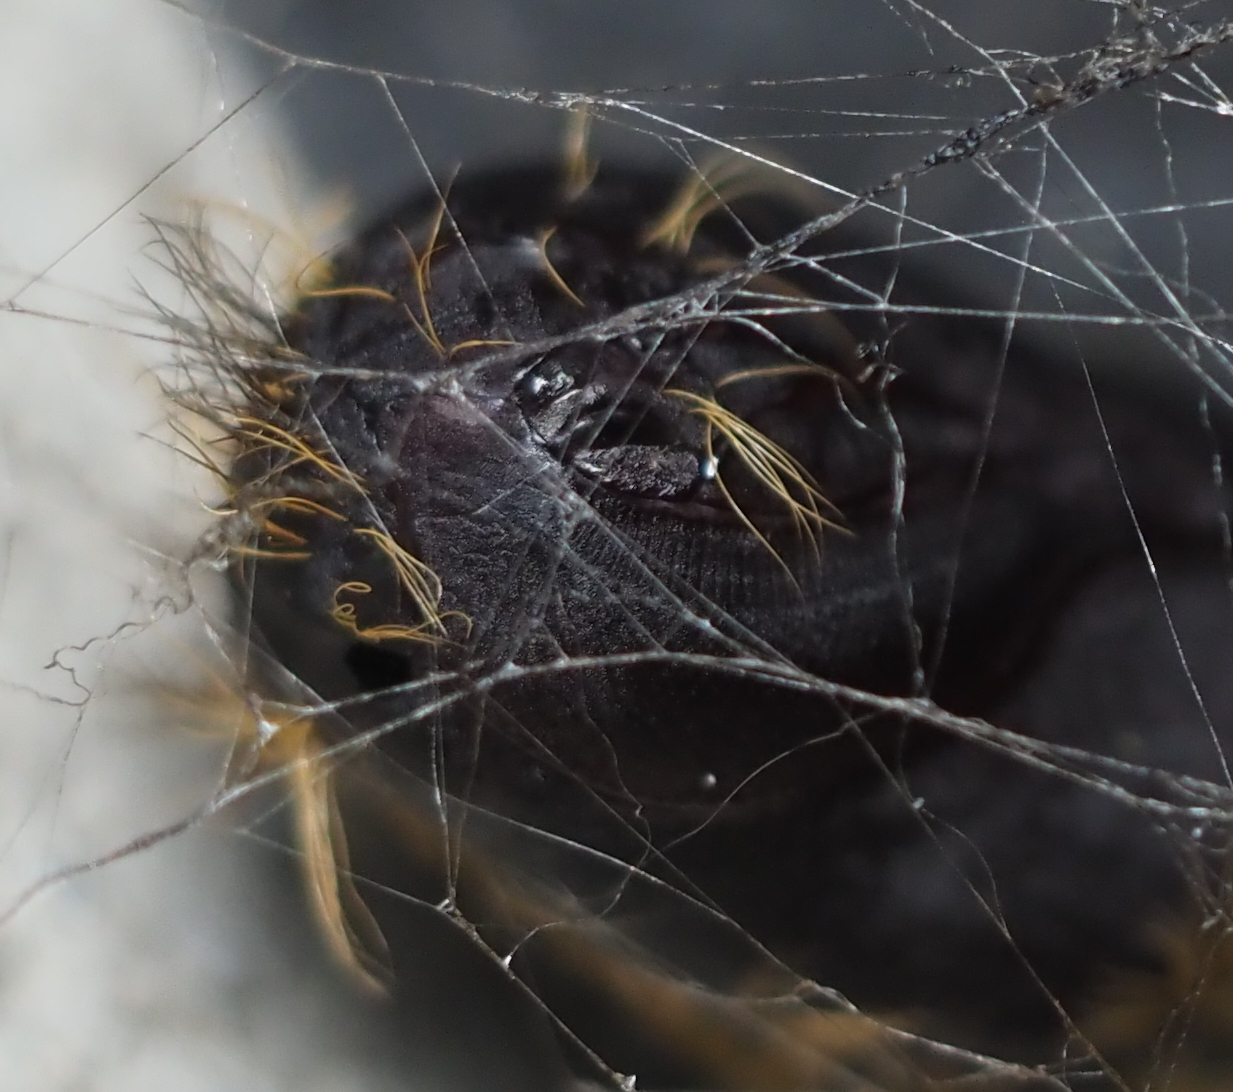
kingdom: Animalia
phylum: Arthropoda
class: Insecta
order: Lepidoptera
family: Erebidae
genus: Lymantria
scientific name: Lymantria dispar
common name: Gypsy moth
